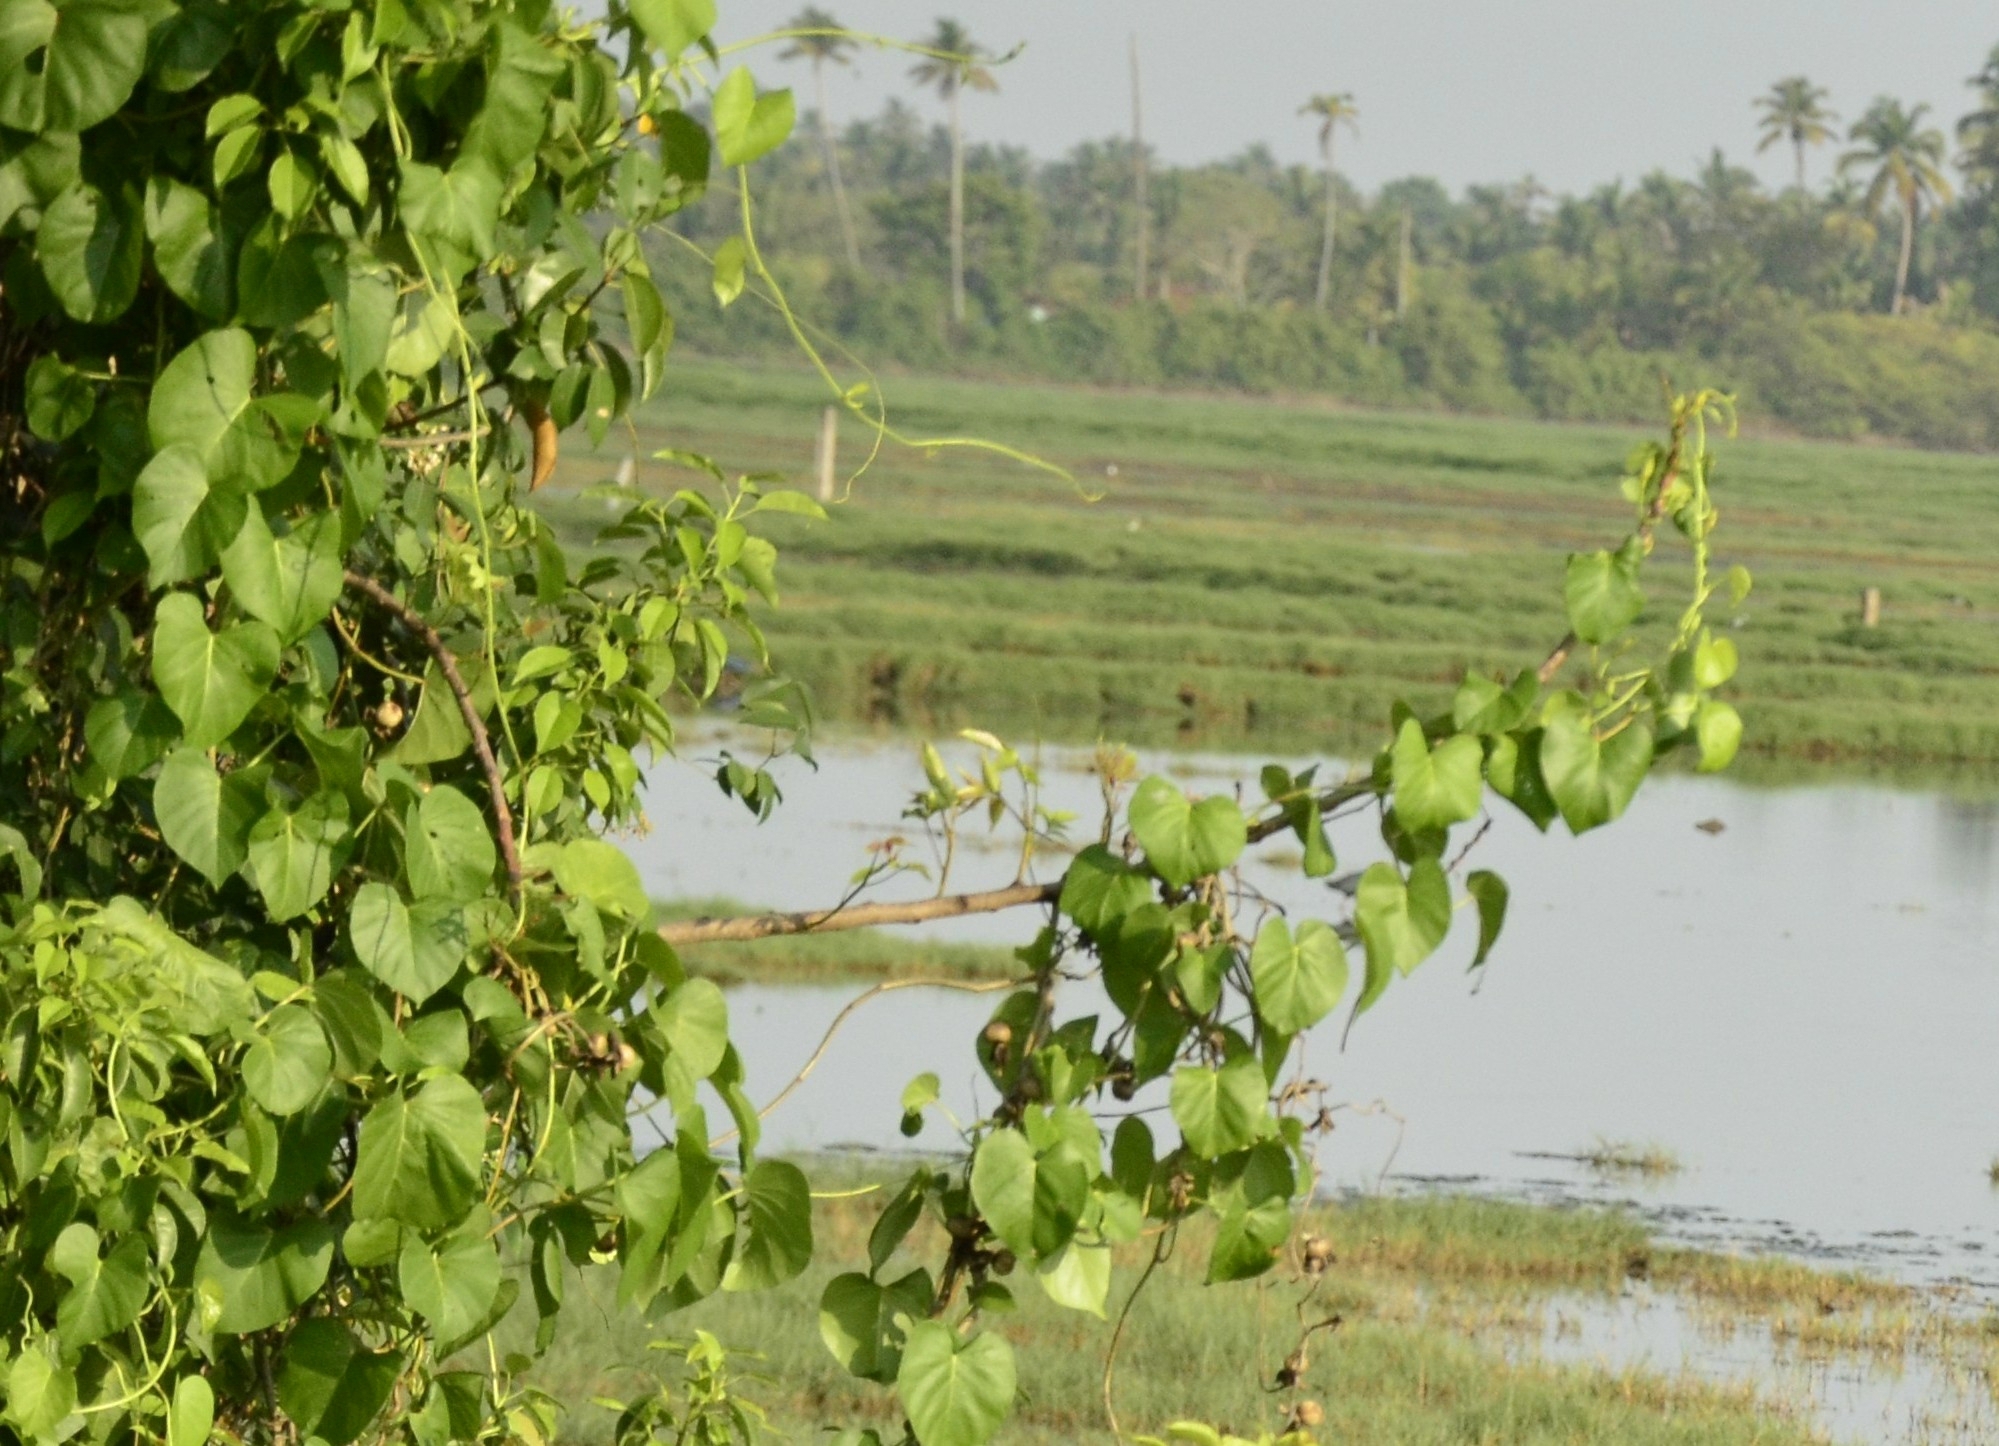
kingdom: Plantae
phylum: Tracheophyta
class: Magnoliopsida
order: Solanales
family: Convolvulaceae
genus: Ipomoea
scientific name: Ipomoea violacea
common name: Beach moonflower
